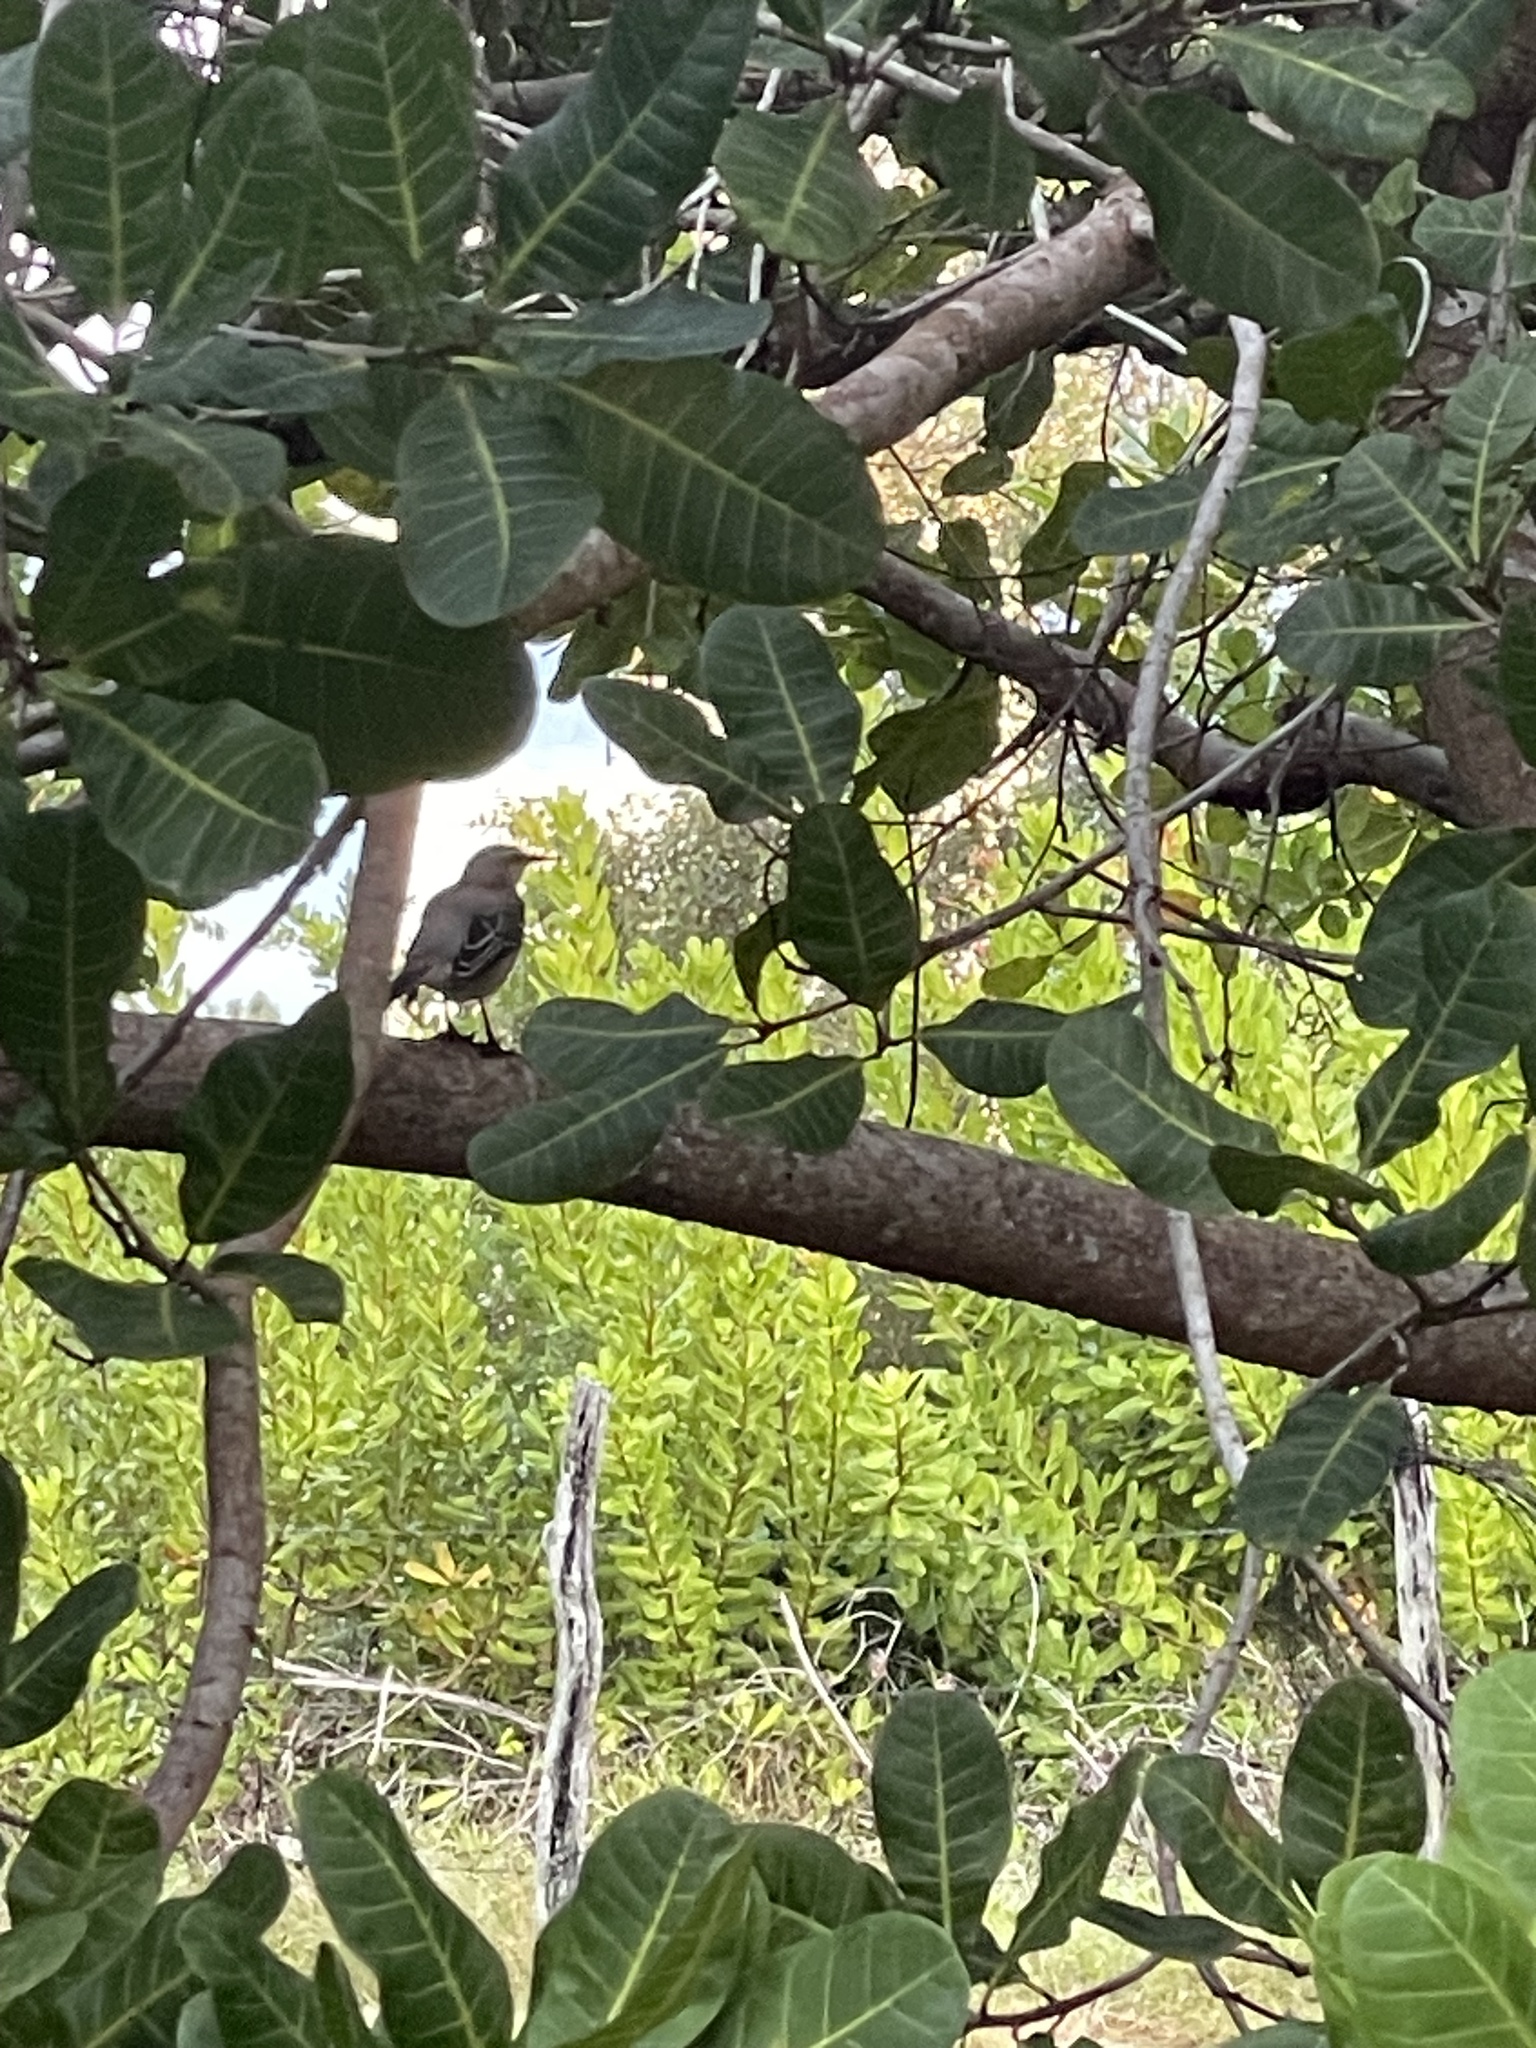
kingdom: Animalia
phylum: Chordata
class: Aves
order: Passeriformes
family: Mimidae
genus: Mimus
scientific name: Mimus gilvus
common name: Tropical mockingbird
